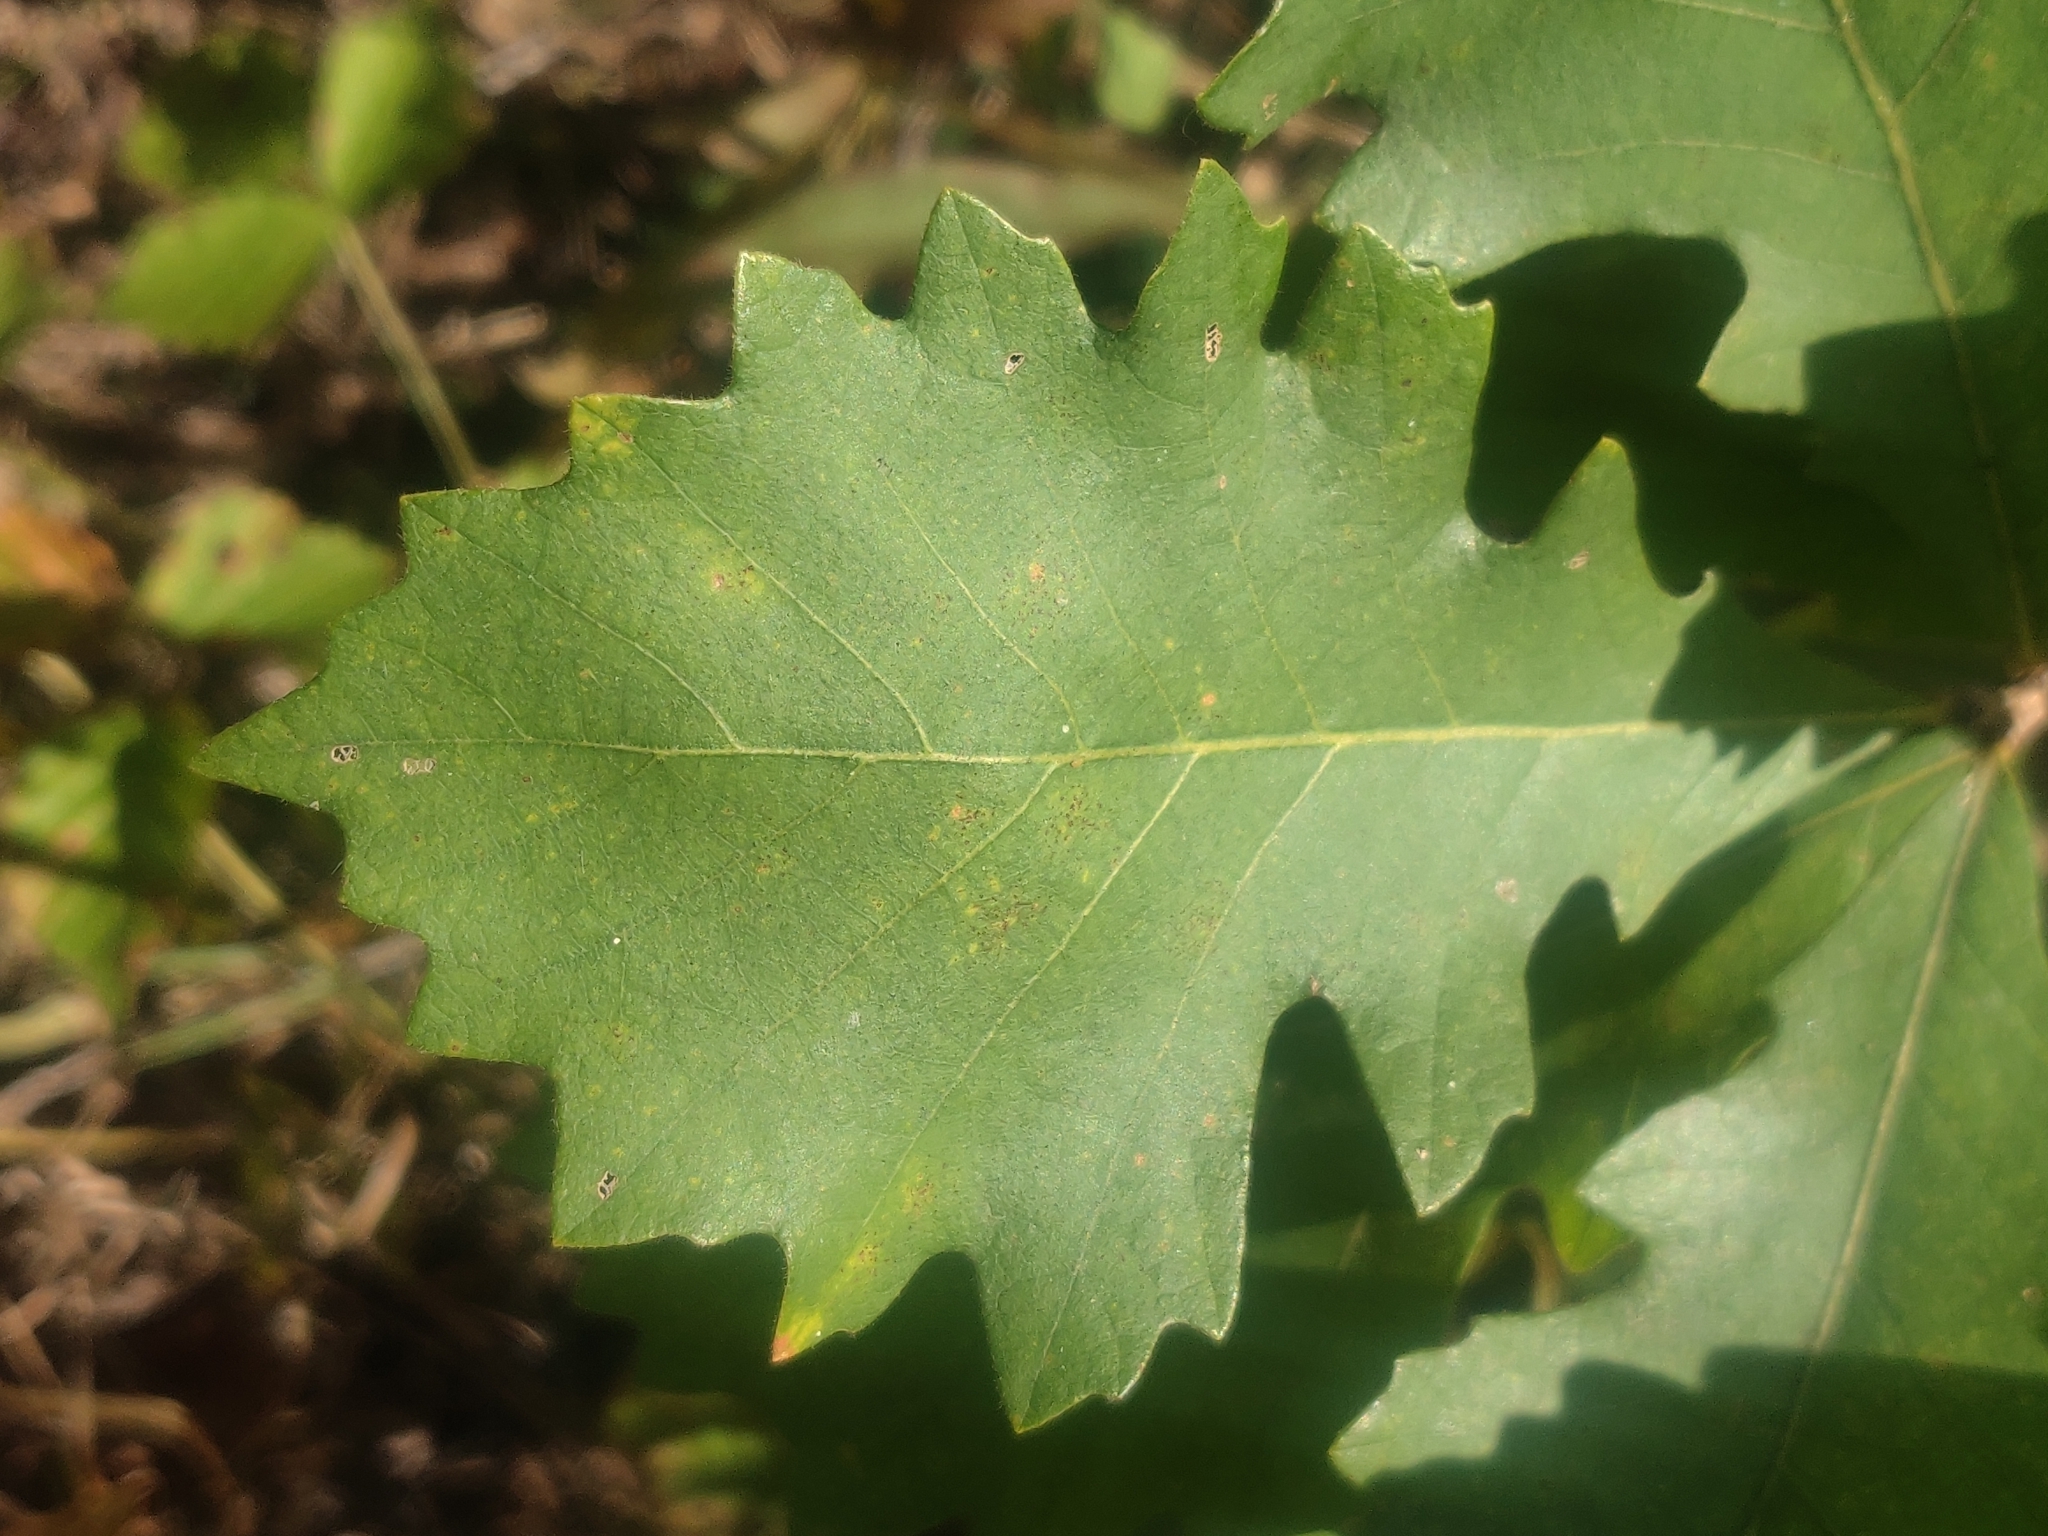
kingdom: Plantae
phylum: Tracheophyta
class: Magnoliopsida
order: Fagales
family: Fagaceae
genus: Quercus
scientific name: Quercus macrocarpa
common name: Bur oak
